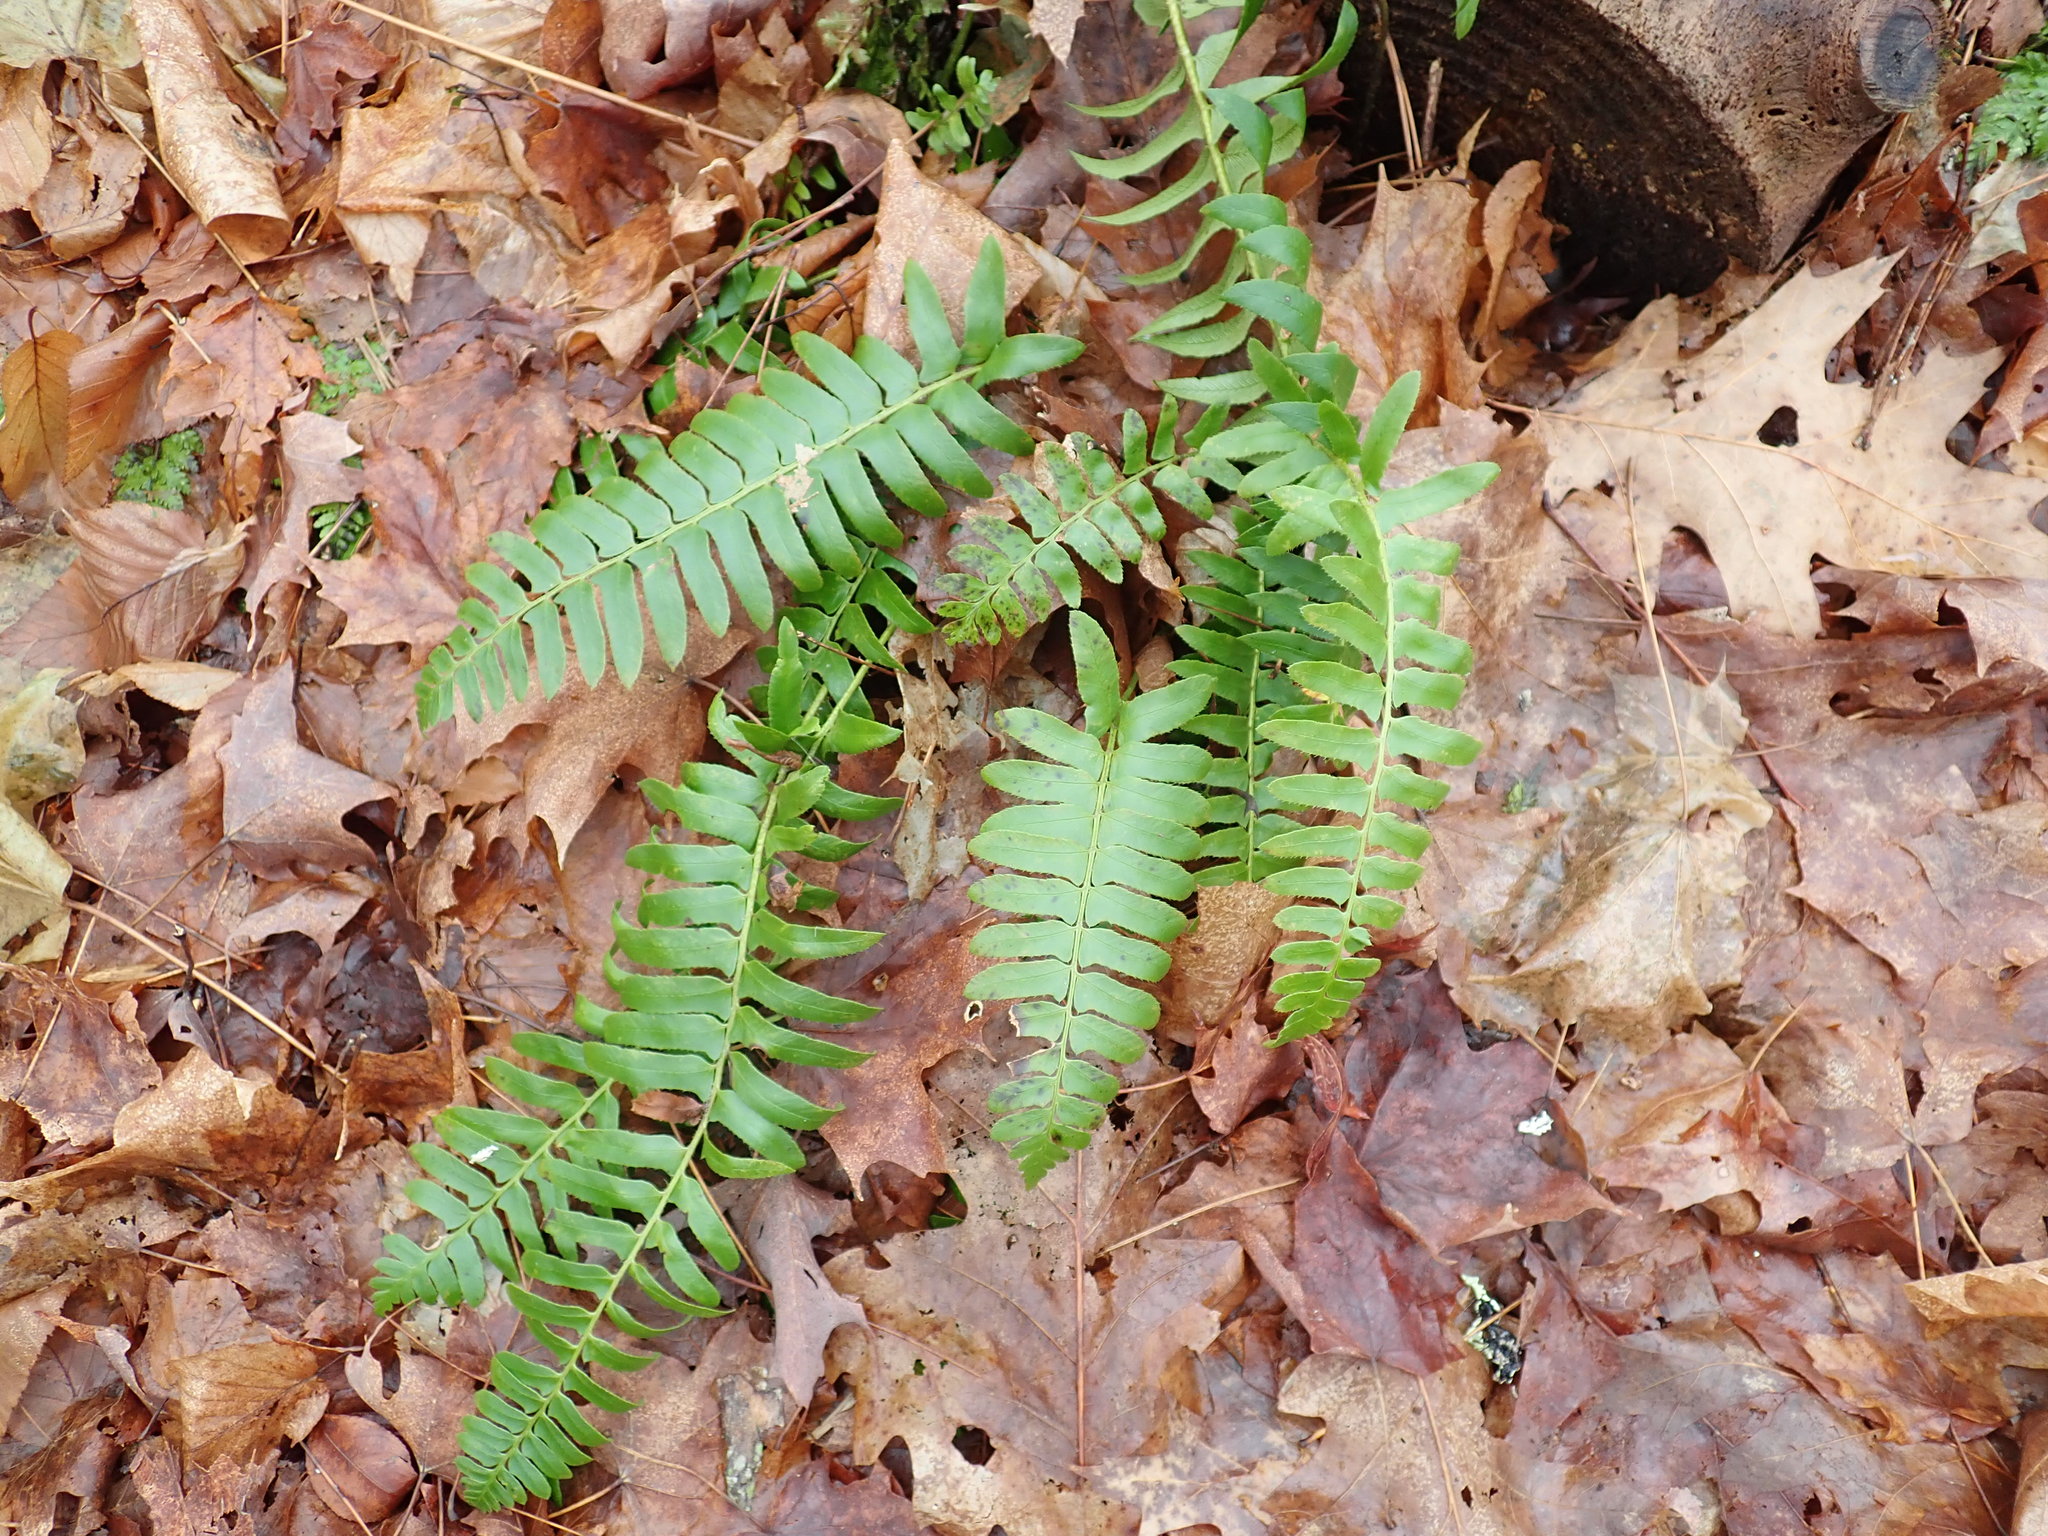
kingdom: Plantae
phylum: Tracheophyta
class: Polypodiopsida
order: Polypodiales
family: Dryopteridaceae
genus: Polystichum
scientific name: Polystichum acrostichoides
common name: Christmas fern
